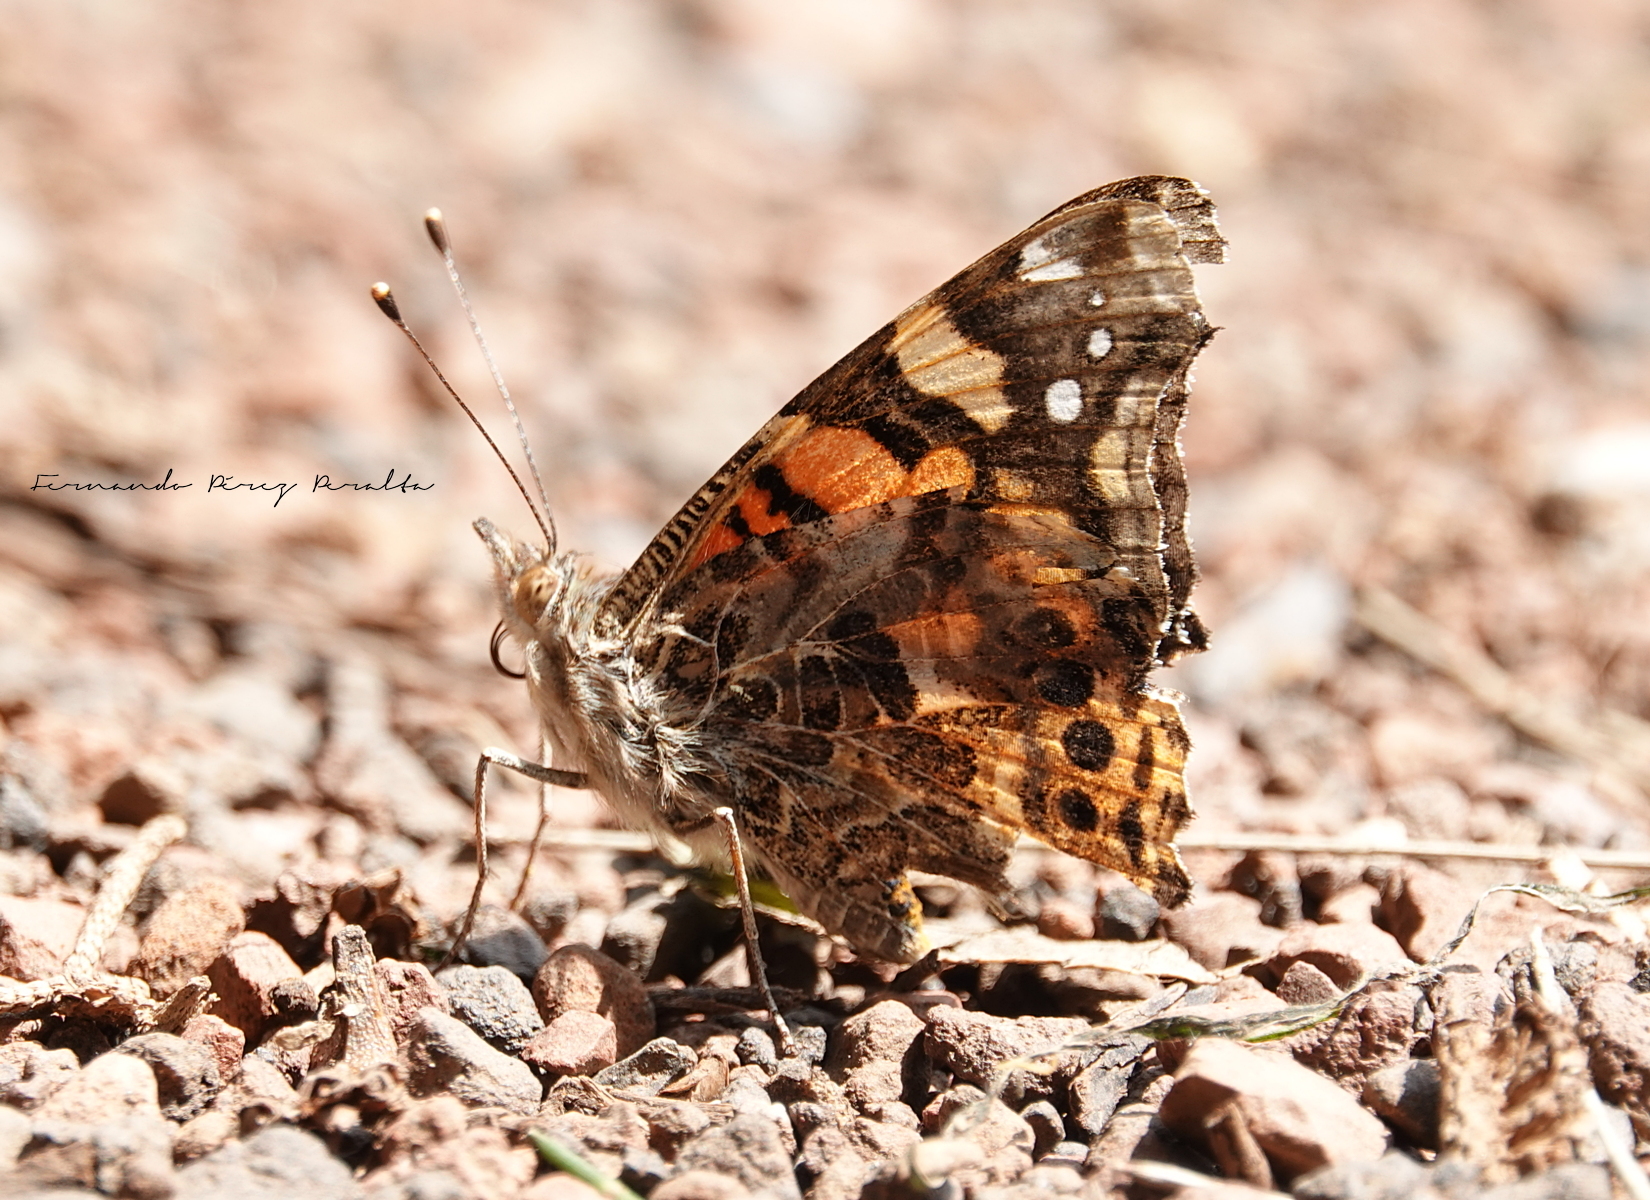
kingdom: Animalia
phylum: Arthropoda
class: Insecta
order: Lepidoptera
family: Nymphalidae
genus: Vanessa
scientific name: Vanessa annabella
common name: West coast lady
